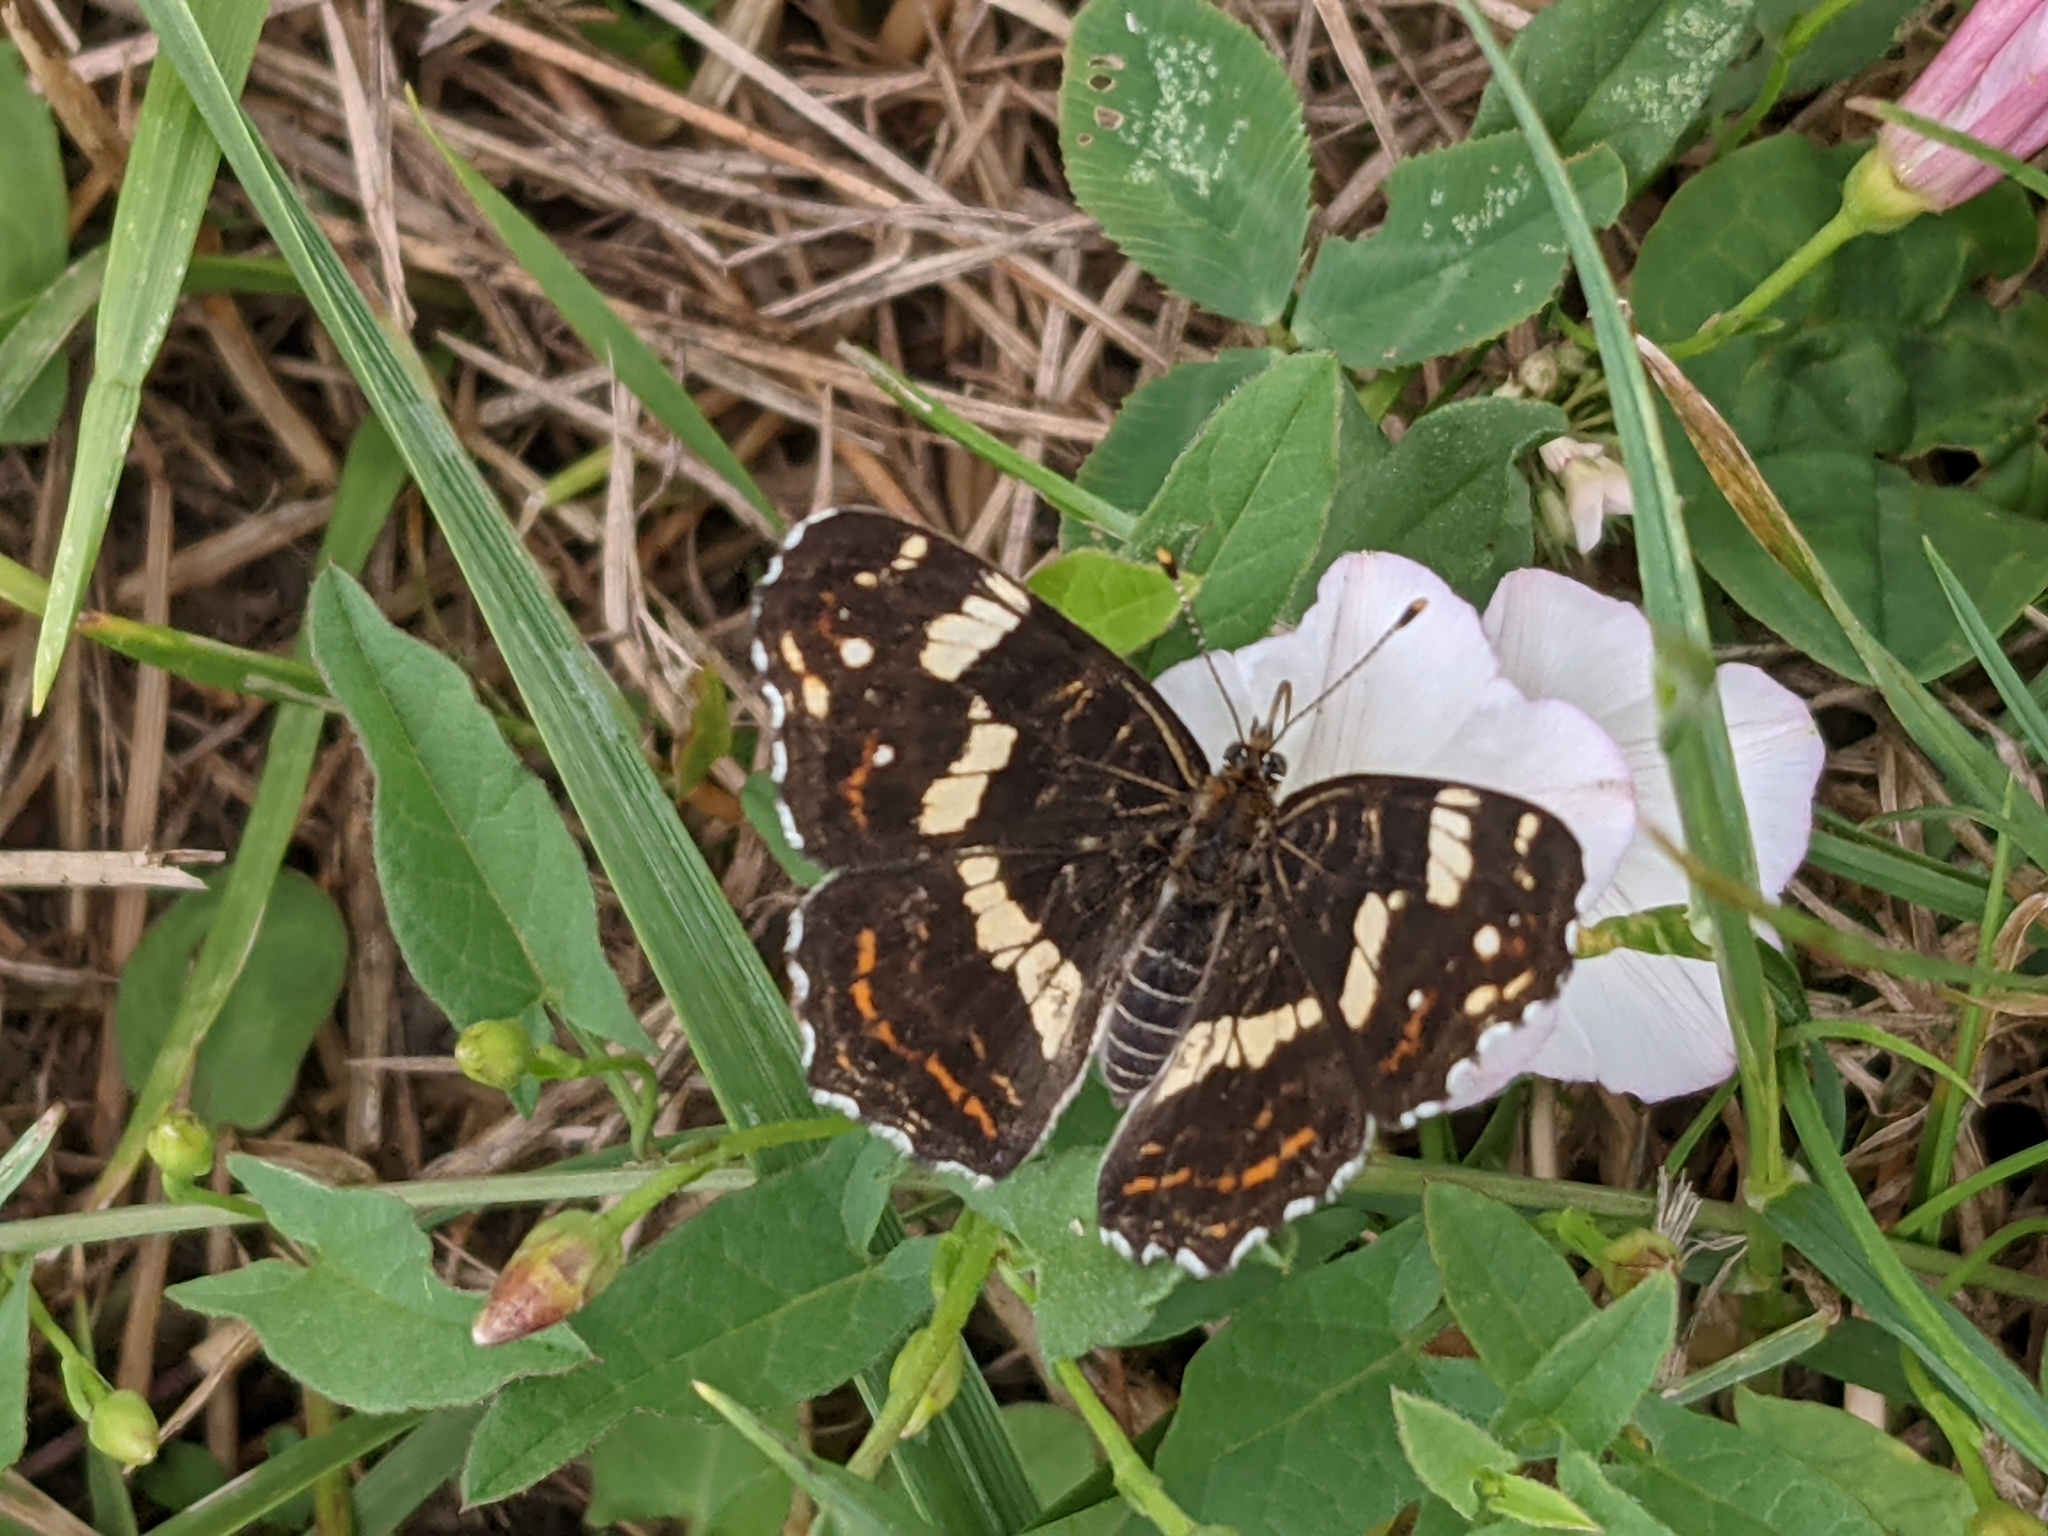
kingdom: Animalia
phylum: Arthropoda
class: Insecta
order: Lepidoptera
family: Nymphalidae
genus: Araschnia
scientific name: Araschnia levana
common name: Map butterfly
